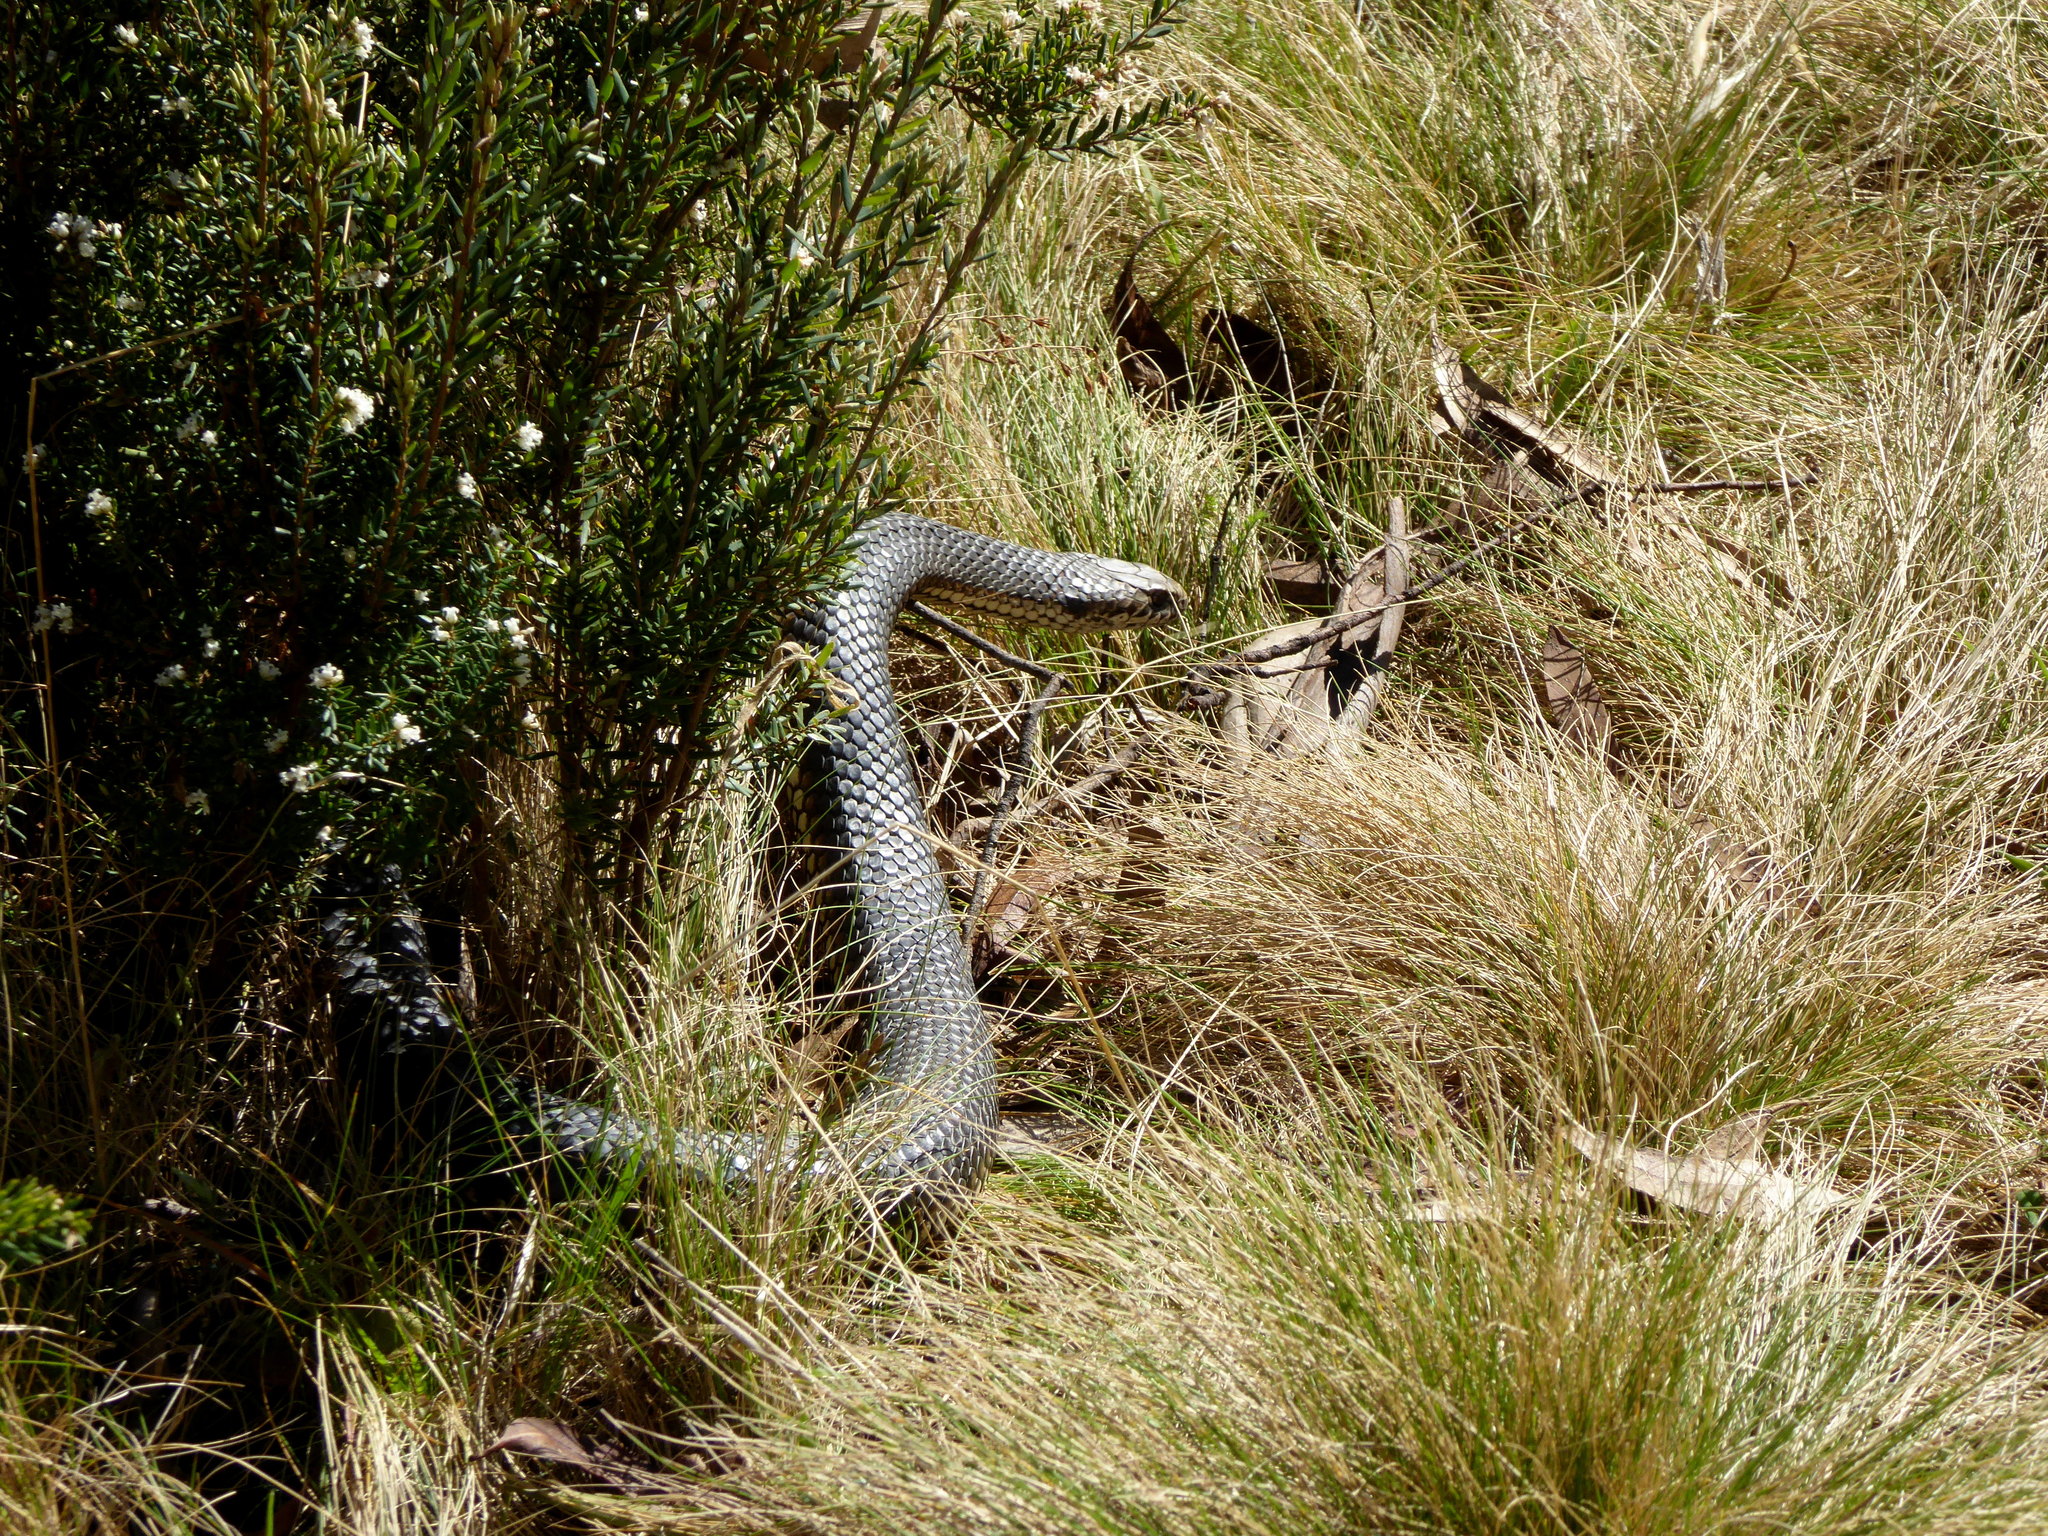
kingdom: Animalia
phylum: Chordata
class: Squamata
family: Elapidae
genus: Austrelaps
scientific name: Austrelaps ramsayi
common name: Highlands copperhead
